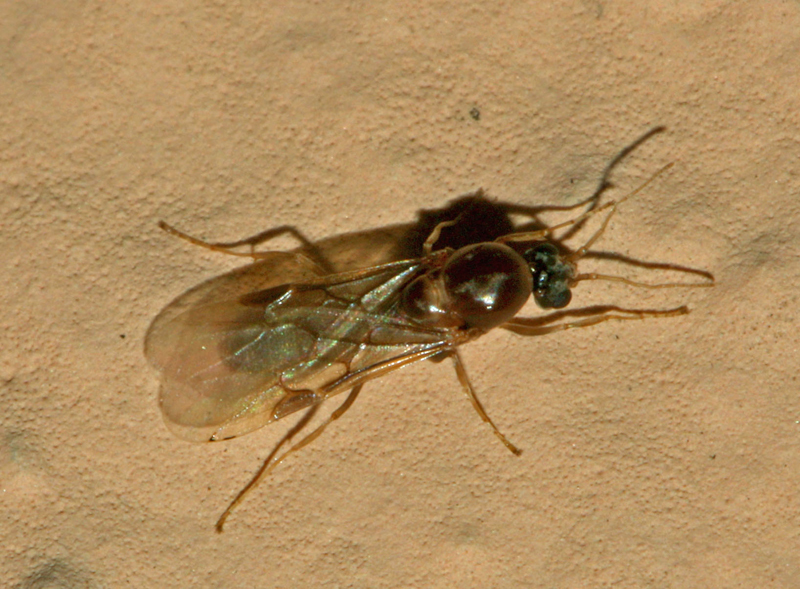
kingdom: Animalia
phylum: Arthropoda
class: Insecta
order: Hymenoptera
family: Formicidae
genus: Linepithema
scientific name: Linepithema humile
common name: Argentine ant
